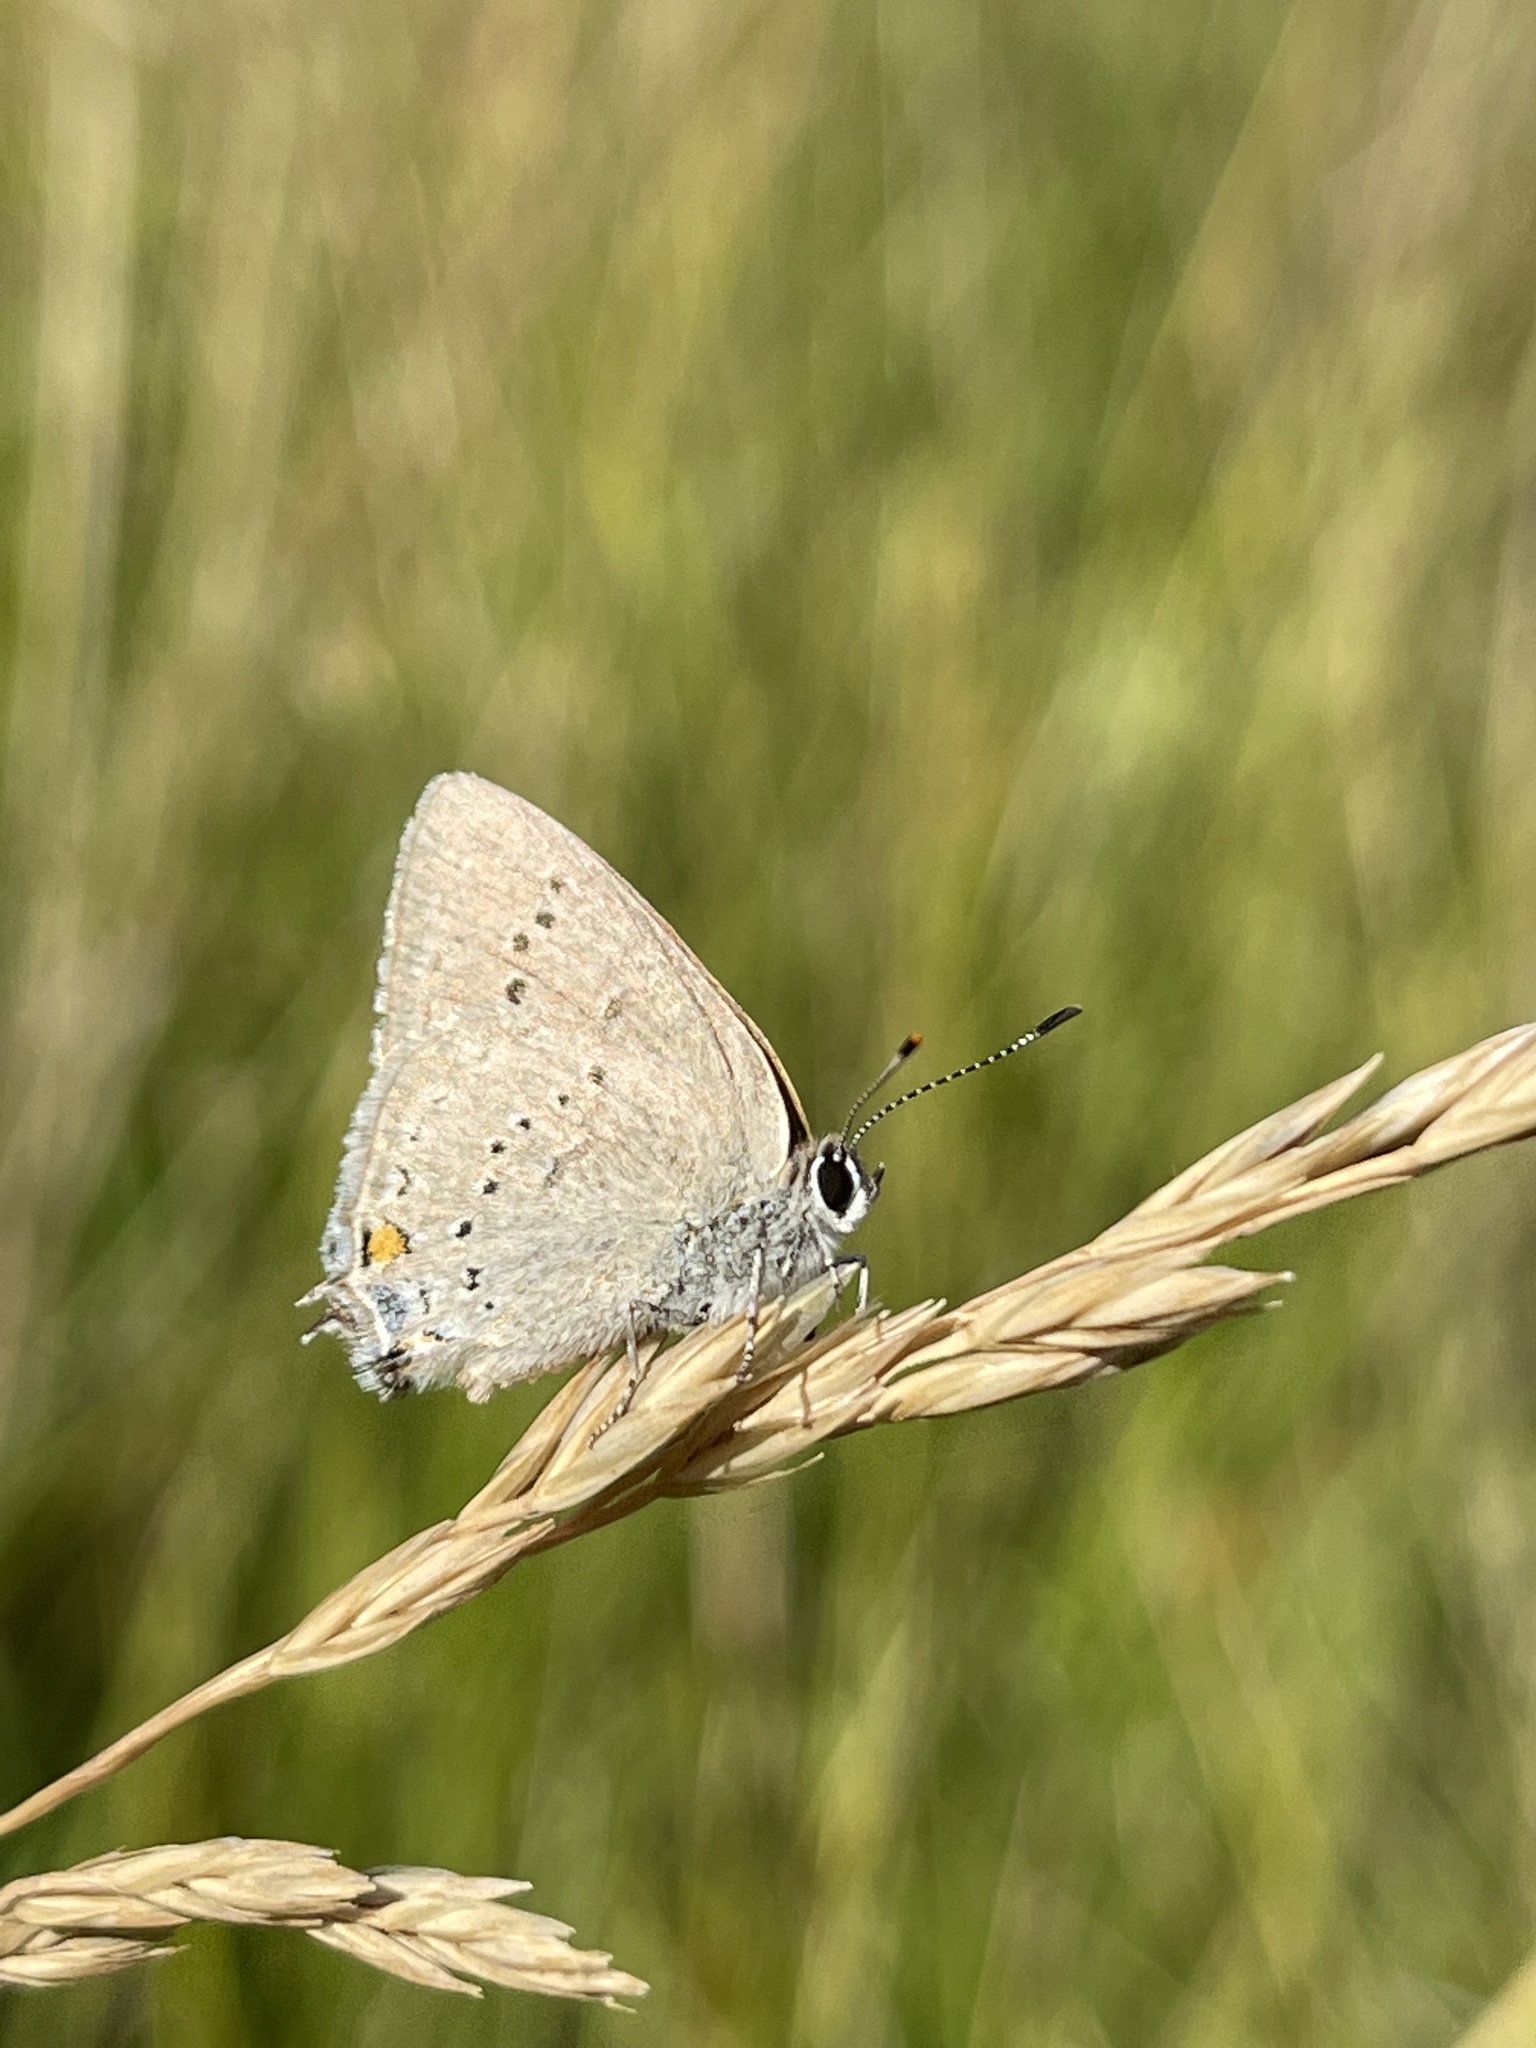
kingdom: Animalia
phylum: Arthropoda
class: Insecta
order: Lepidoptera
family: Lycaenidae
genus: Strymon
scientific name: Strymon sylvinus
